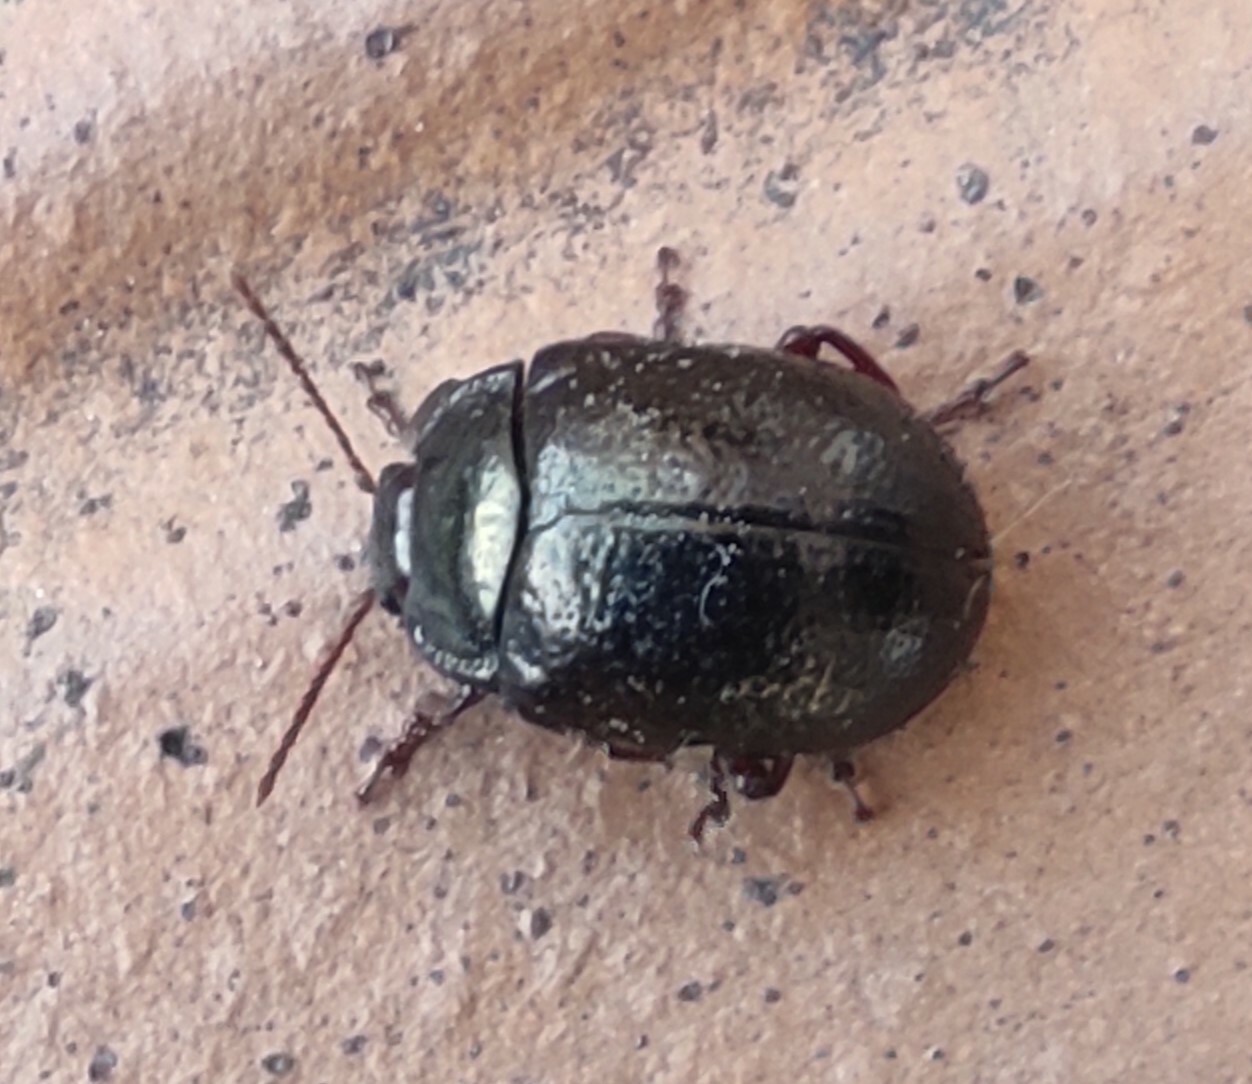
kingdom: Animalia
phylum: Arthropoda
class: Insecta
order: Coleoptera
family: Chrysomelidae
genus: Chrysolina
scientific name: Chrysolina bankii
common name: Leaf beetle
